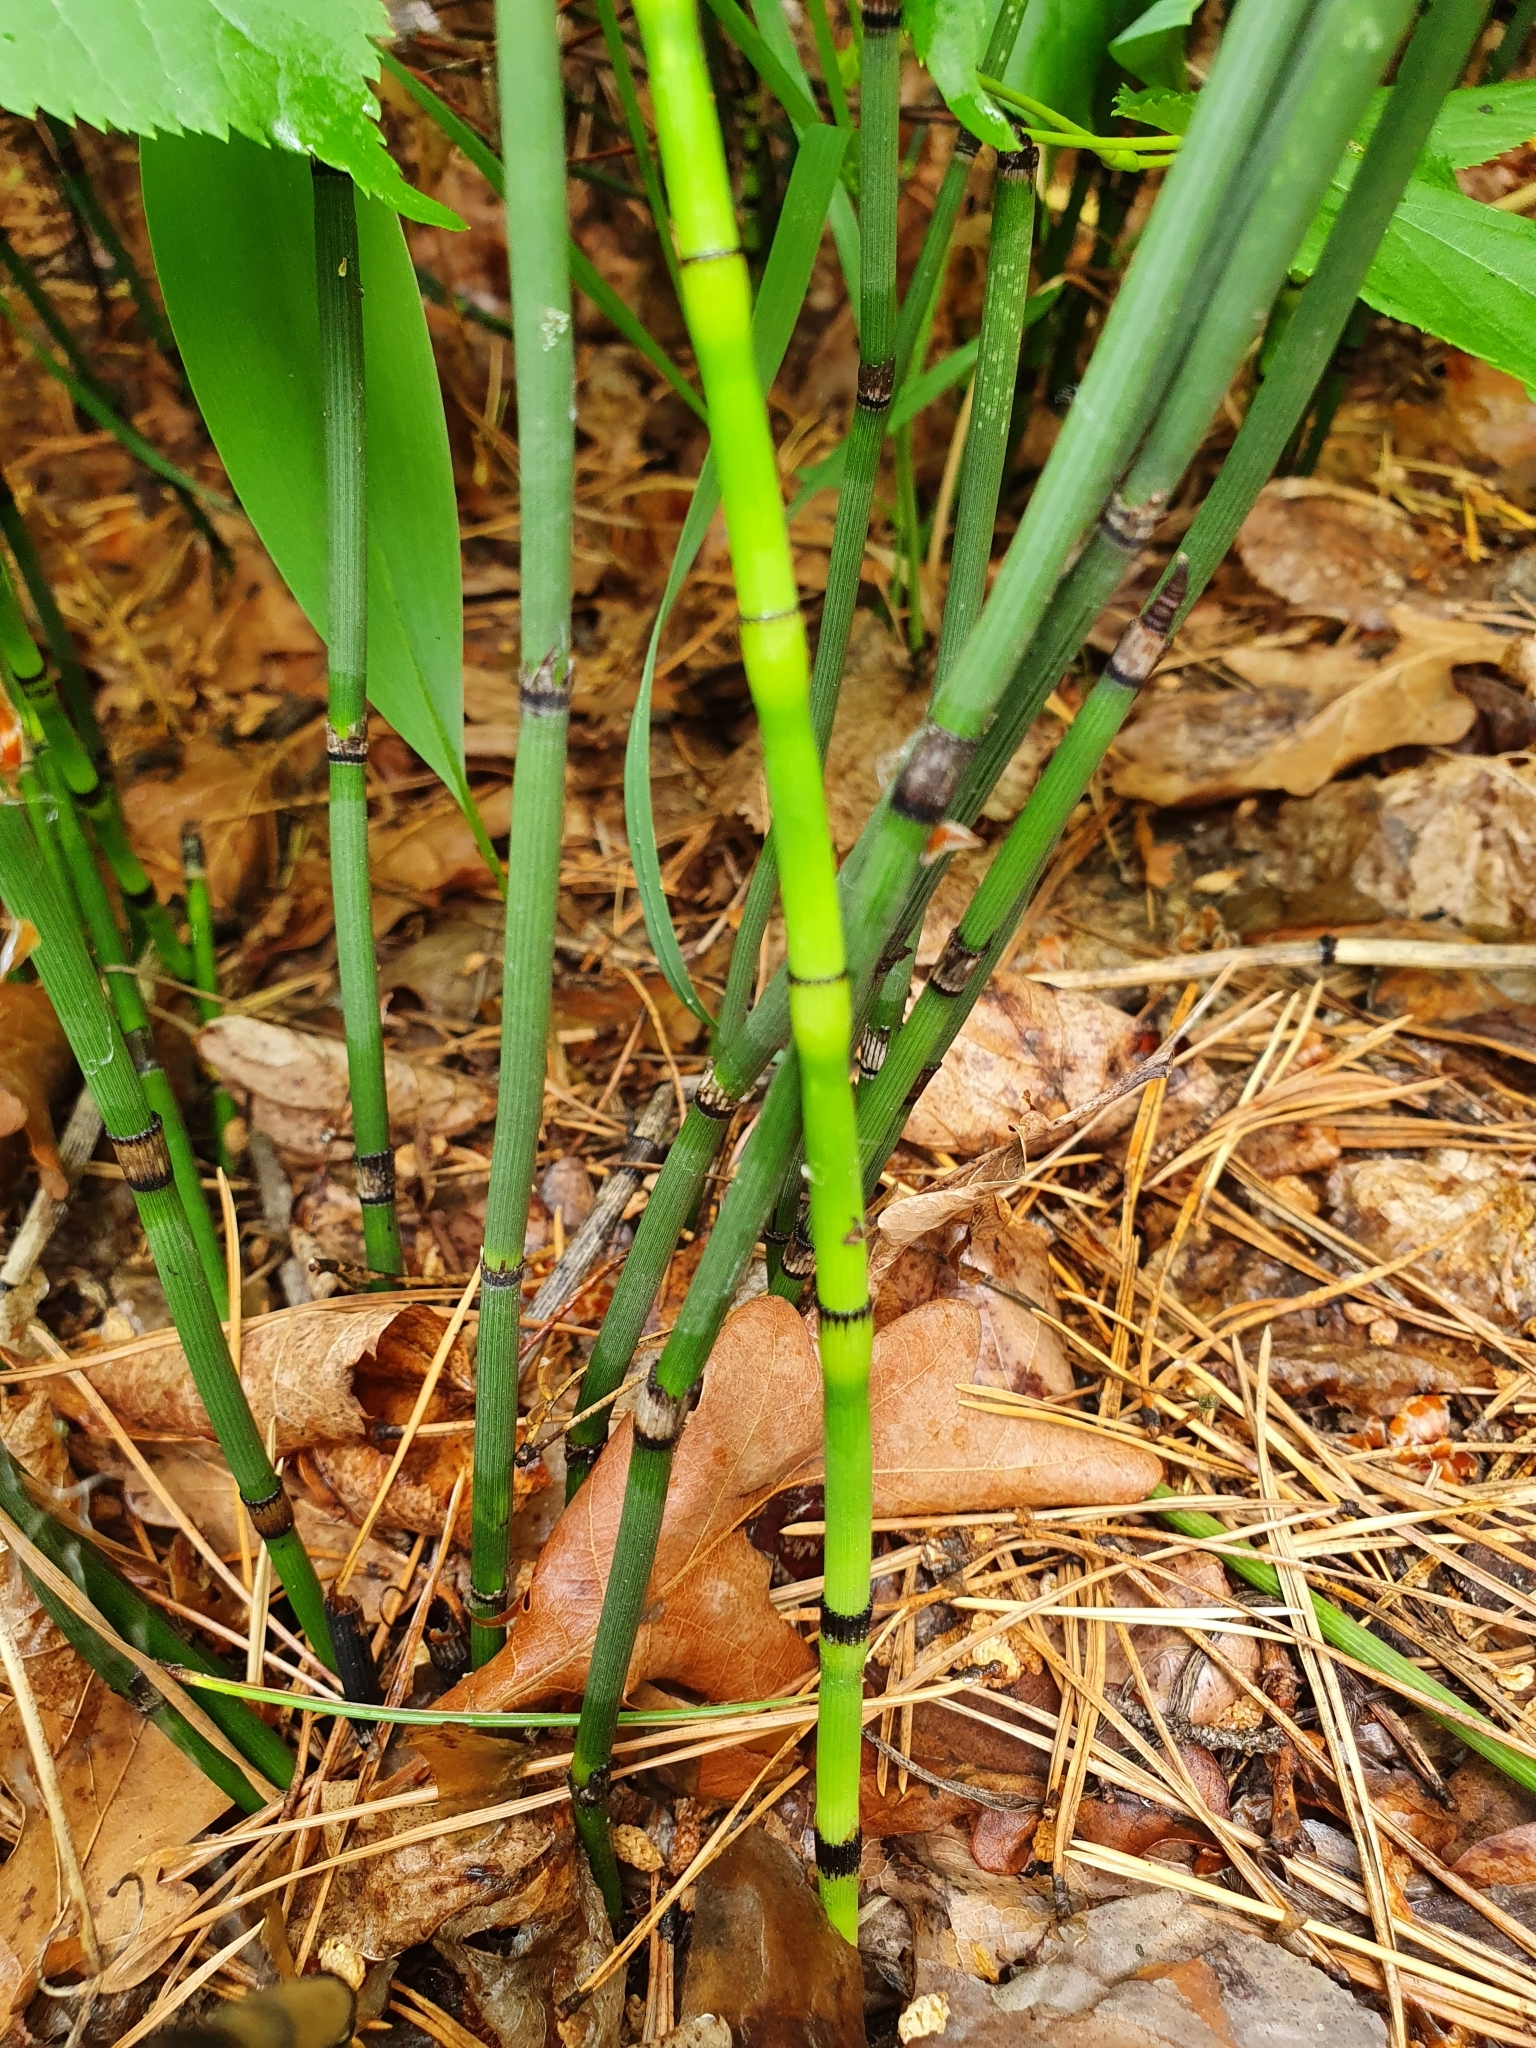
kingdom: Plantae
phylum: Tracheophyta
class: Polypodiopsida
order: Equisetales
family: Equisetaceae
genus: Equisetum
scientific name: Equisetum hyemale
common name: Rough horsetail
